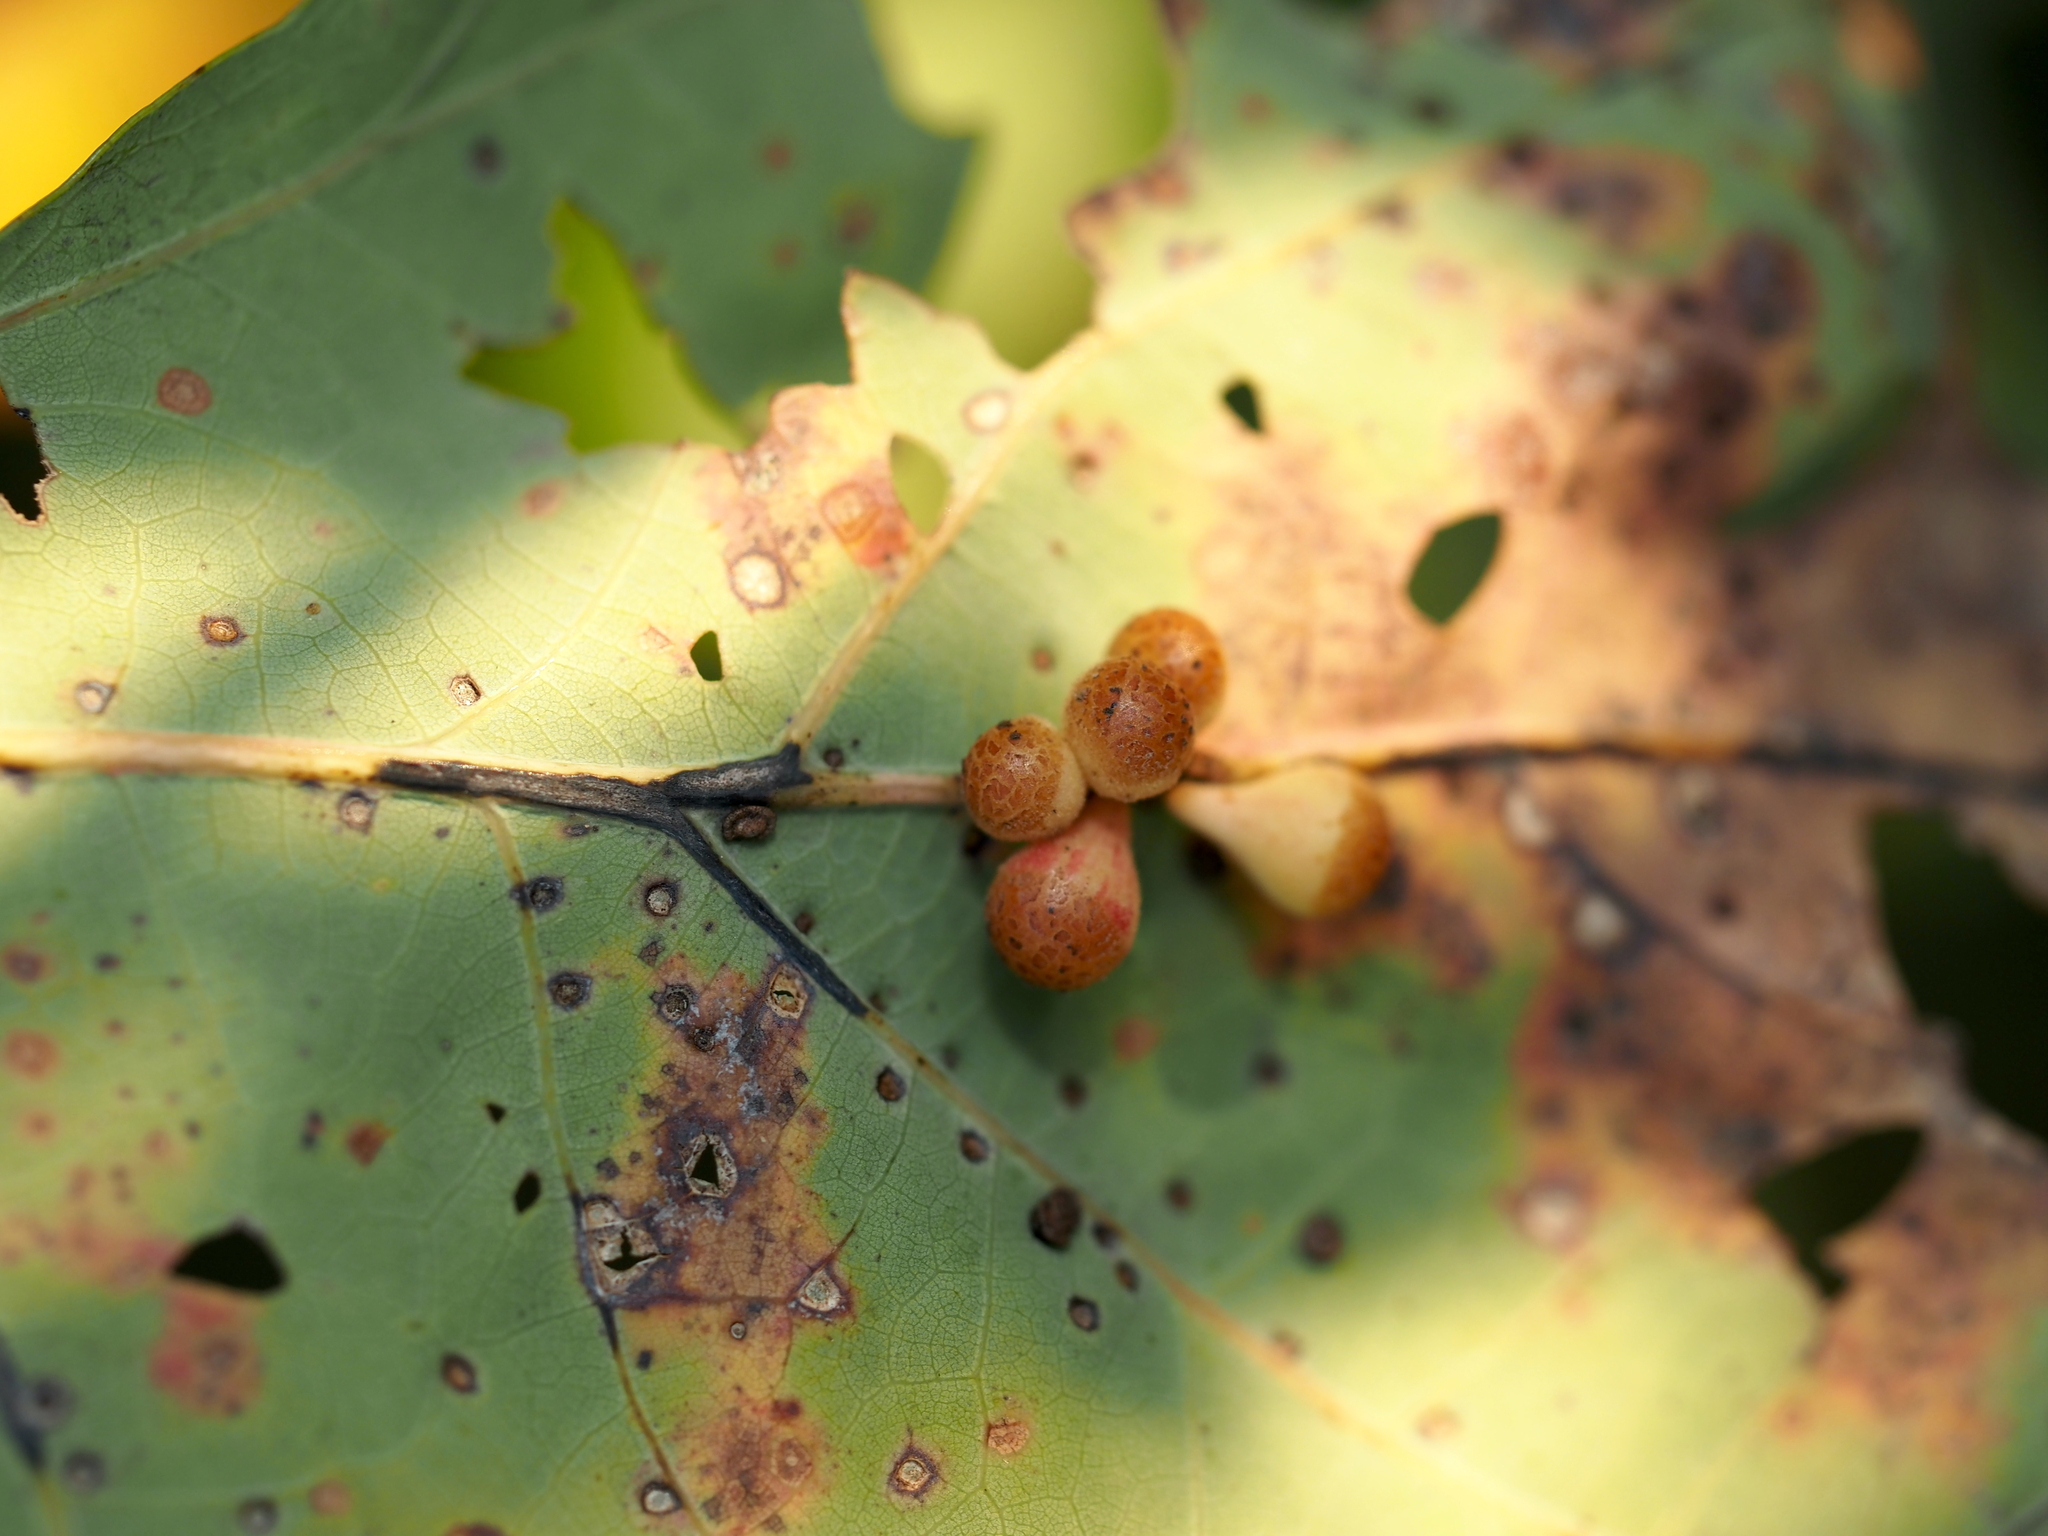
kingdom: Animalia
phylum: Arthropoda
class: Insecta
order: Hymenoptera
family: Cynipidae
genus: Andricus
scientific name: Andricus
